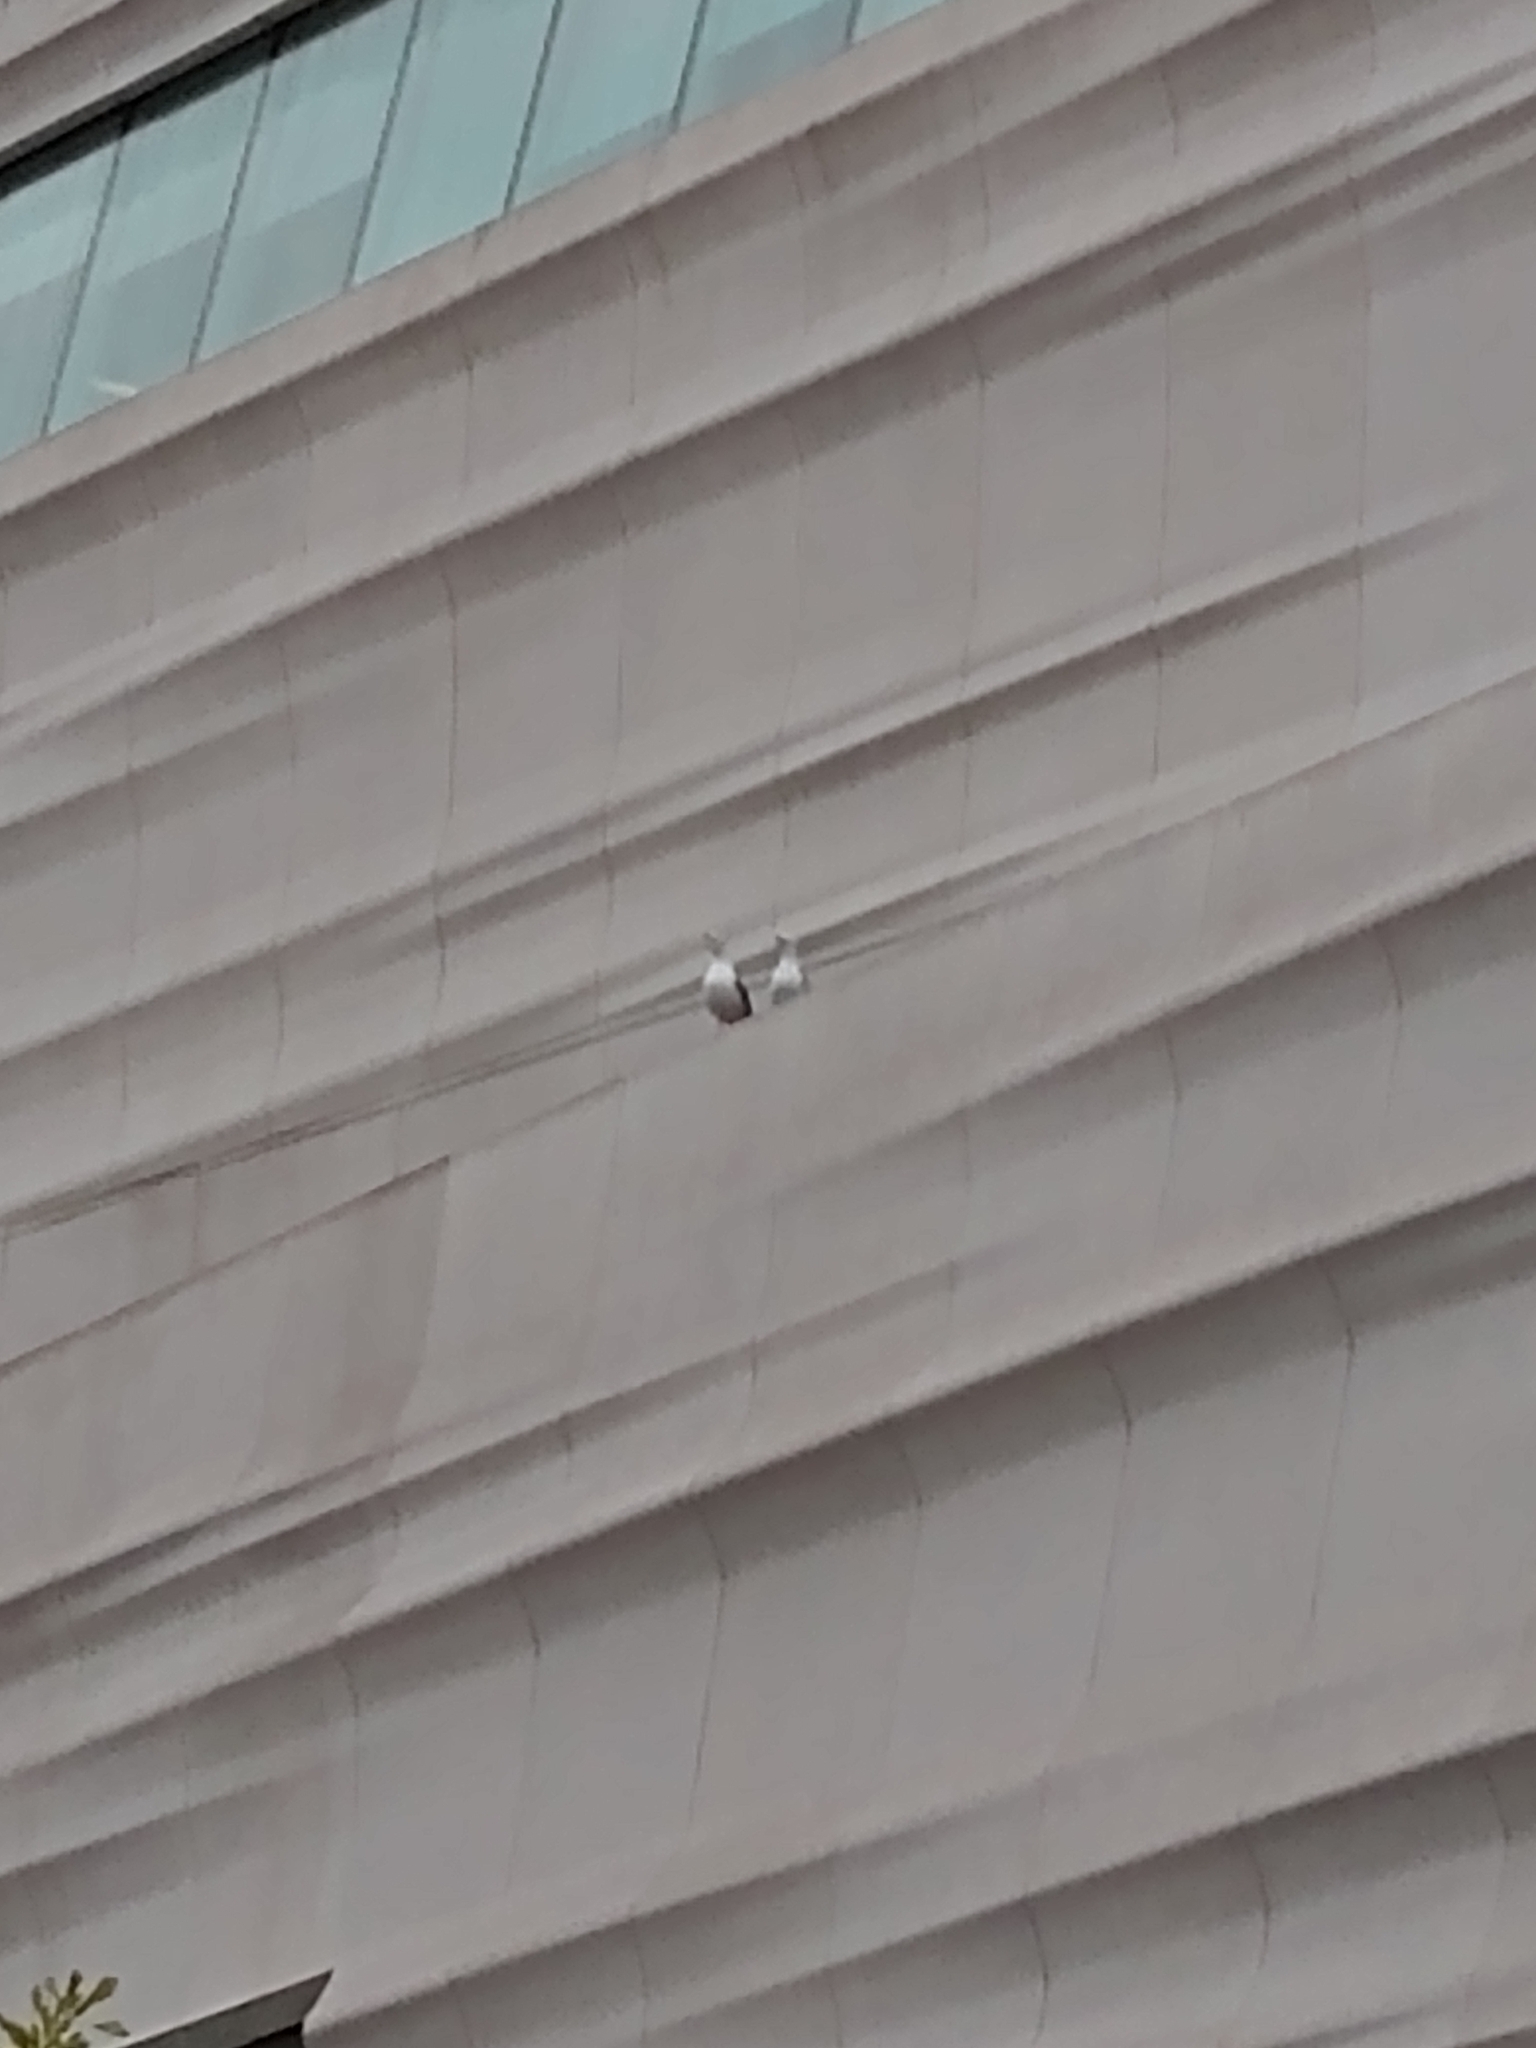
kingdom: Animalia
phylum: Chordata
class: Aves
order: Charadriiformes
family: Laridae
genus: Larus
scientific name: Larus occidentalis
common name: Western gull
